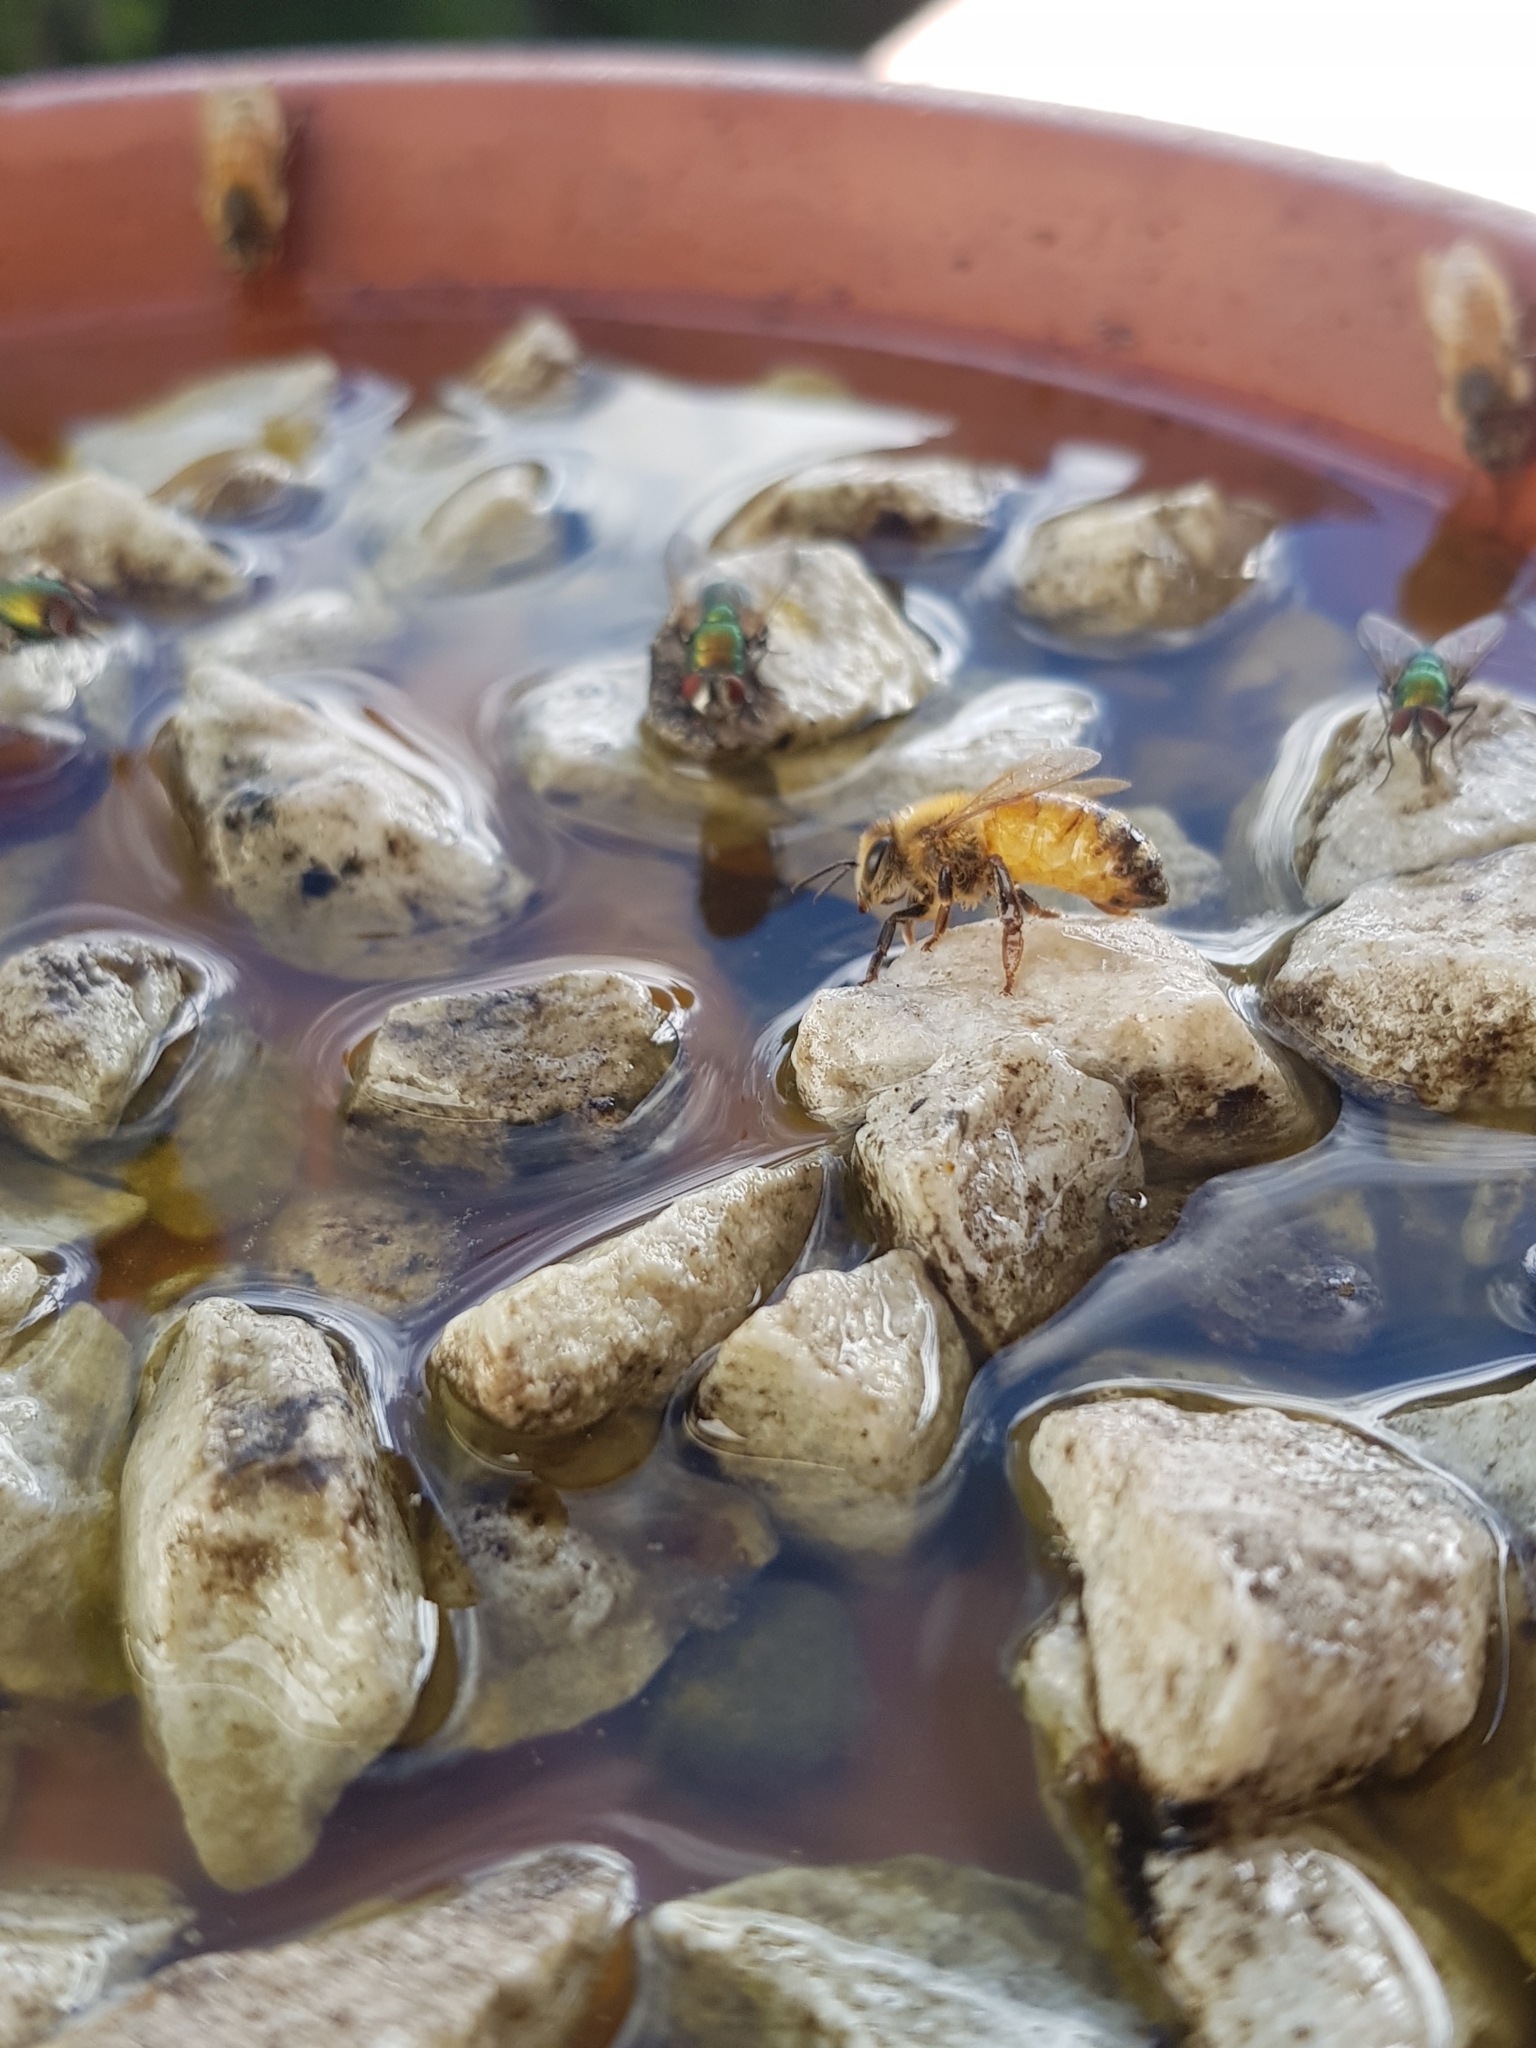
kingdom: Animalia
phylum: Arthropoda
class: Insecta
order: Hymenoptera
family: Apidae
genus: Apis
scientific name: Apis mellifera
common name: Honey bee
